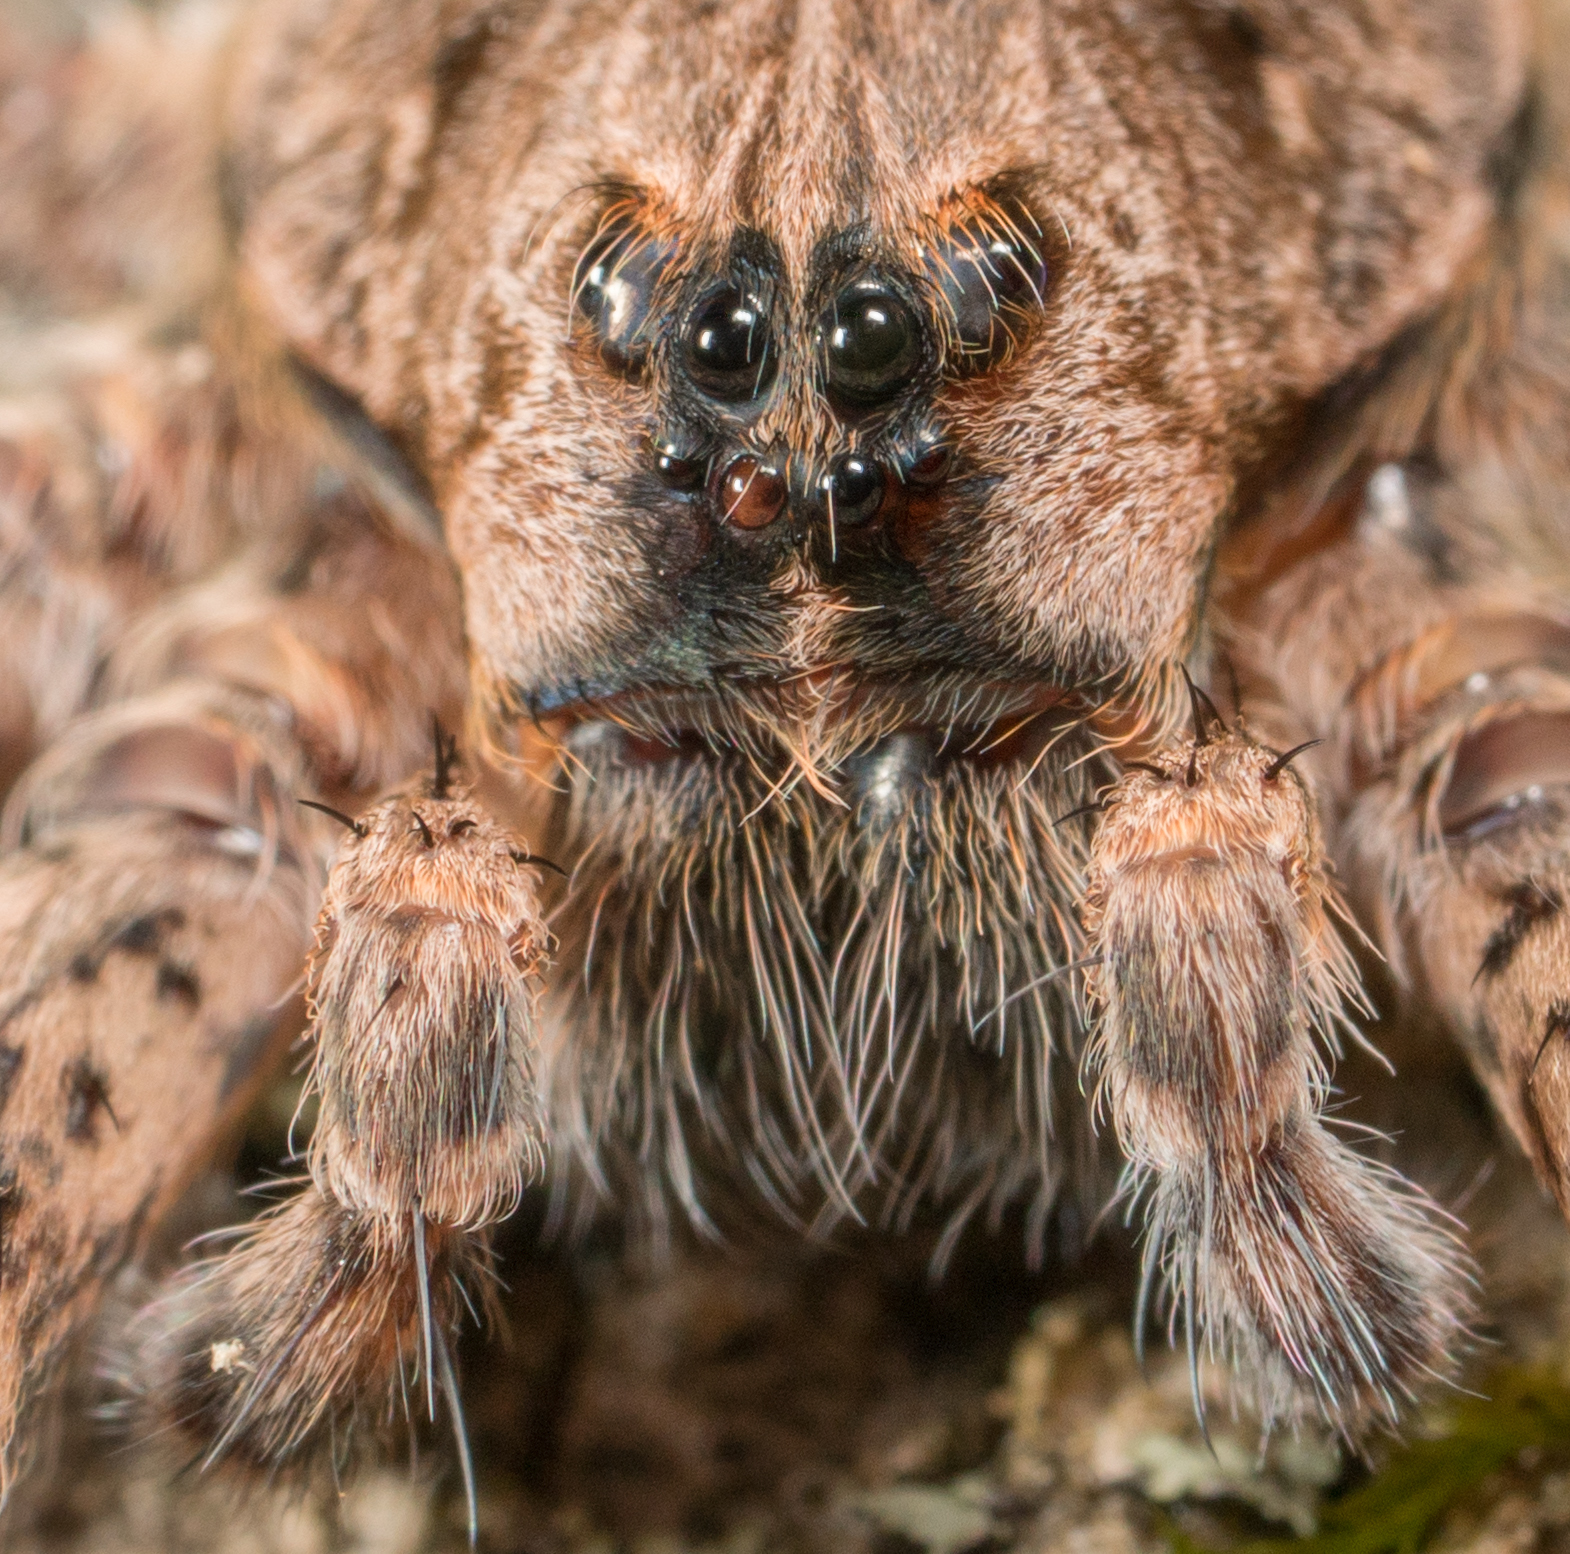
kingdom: Animalia
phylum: Arthropoda
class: Arachnida
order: Araneae
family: Pisauridae
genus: Dolomedes
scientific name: Dolomedes tenebrosus
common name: Dark fishing spider
